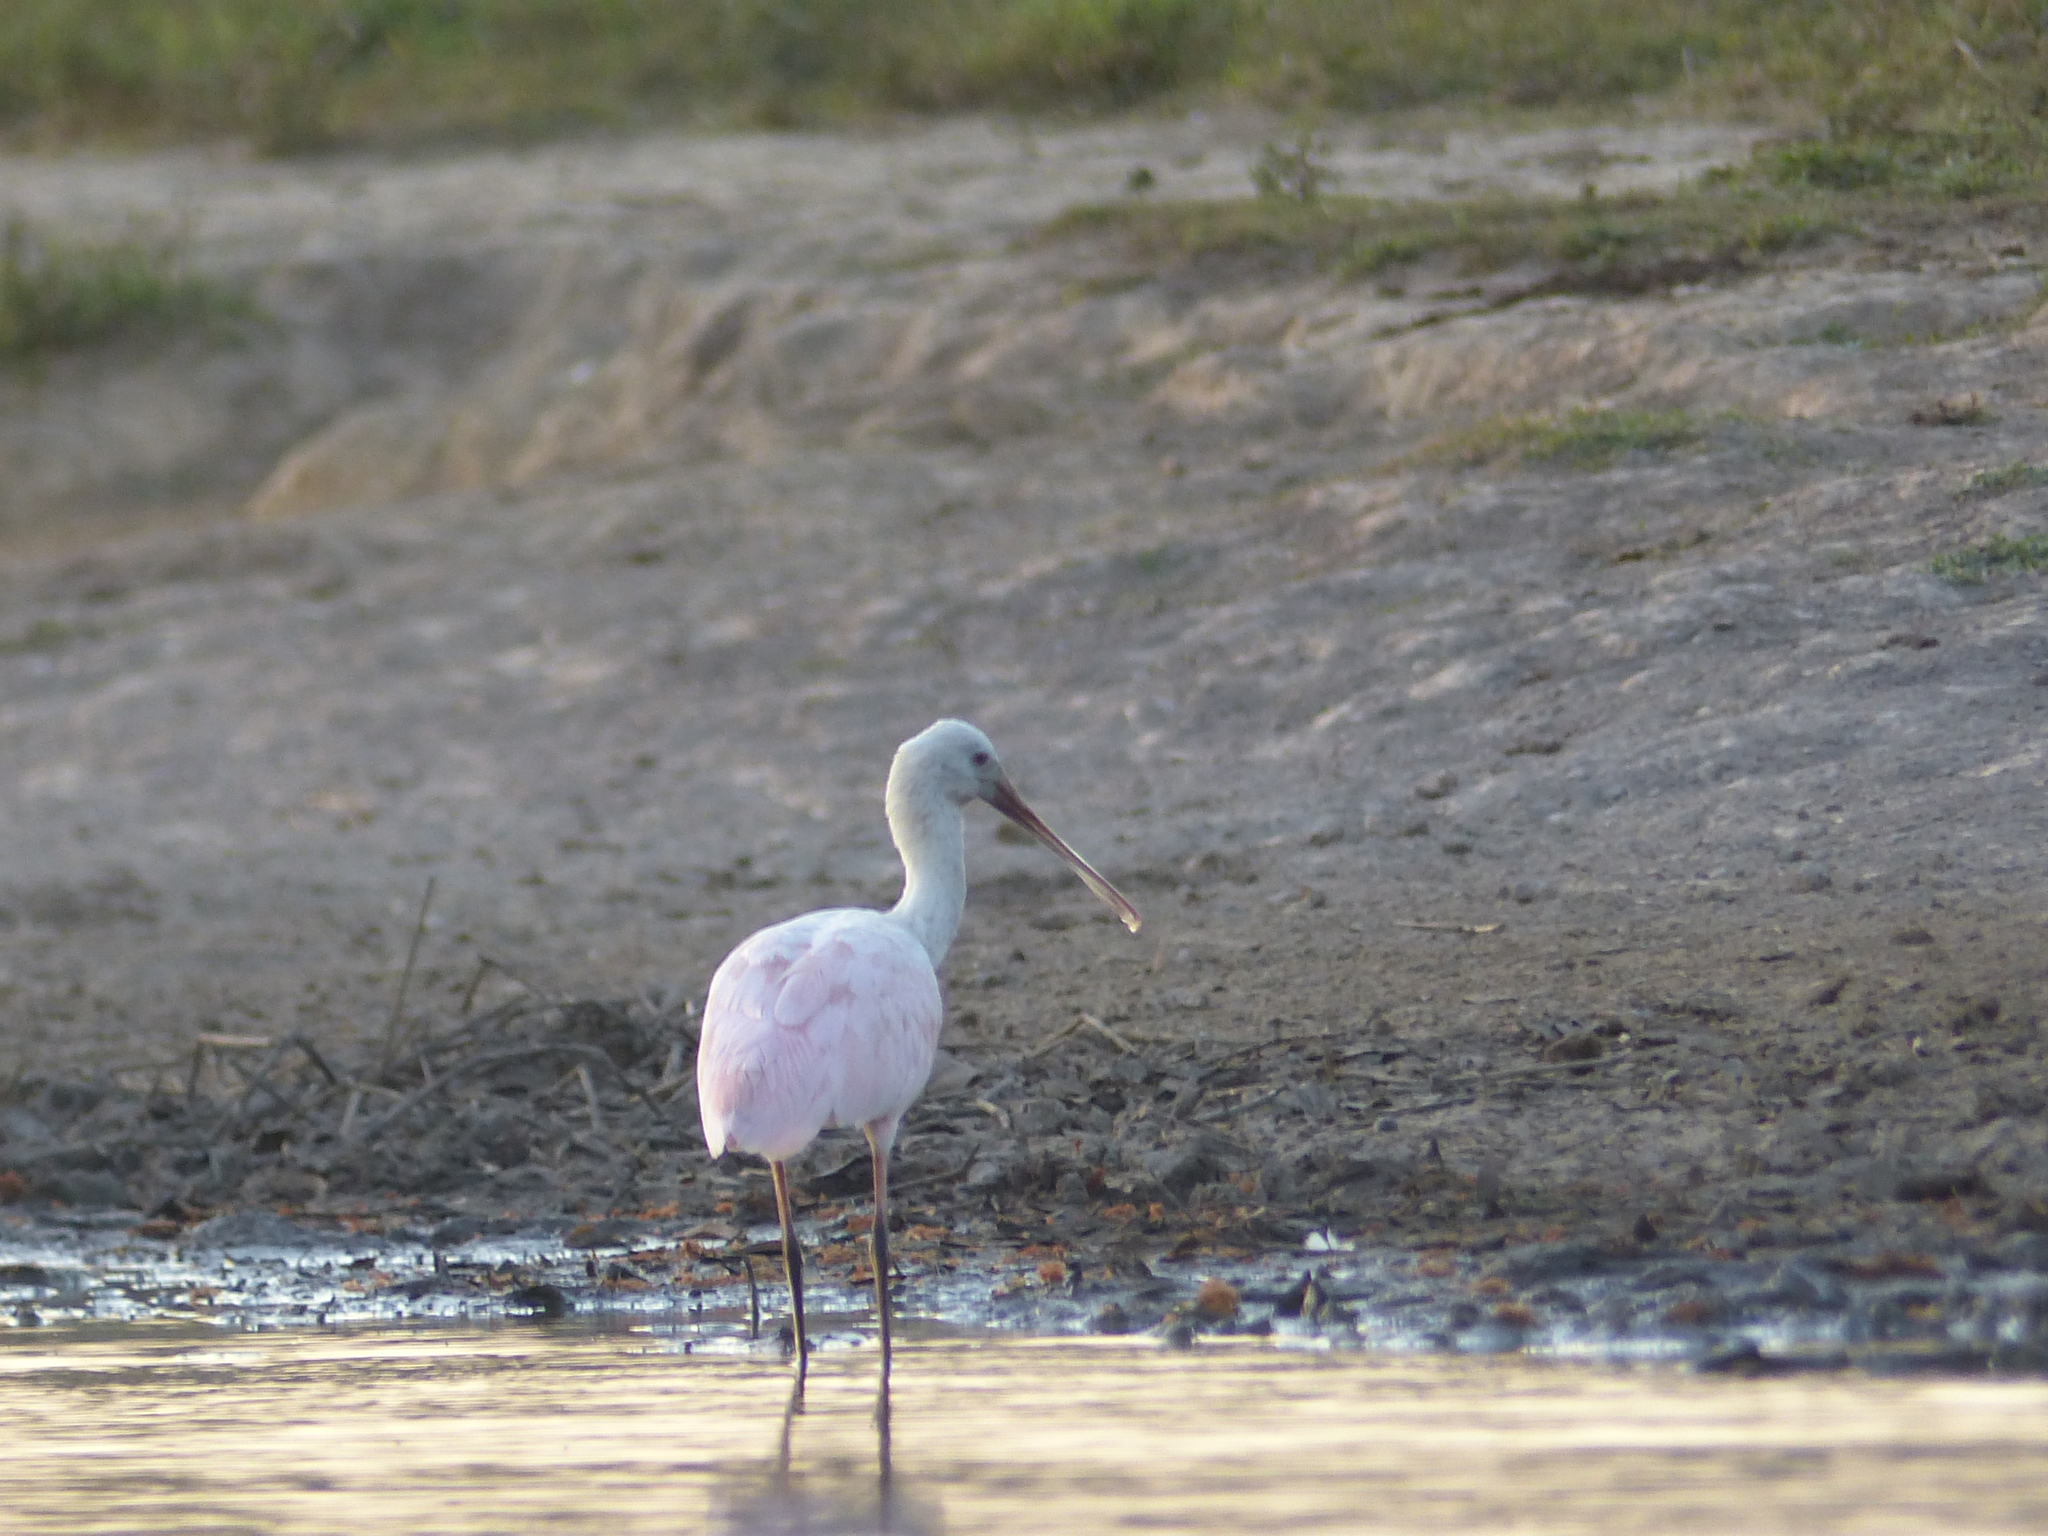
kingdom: Animalia
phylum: Chordata
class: Aves
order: Pelecaniformes
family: Threskiornithidae
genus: Platalea
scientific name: Platalea ajaja
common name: Roseate spoonbill
